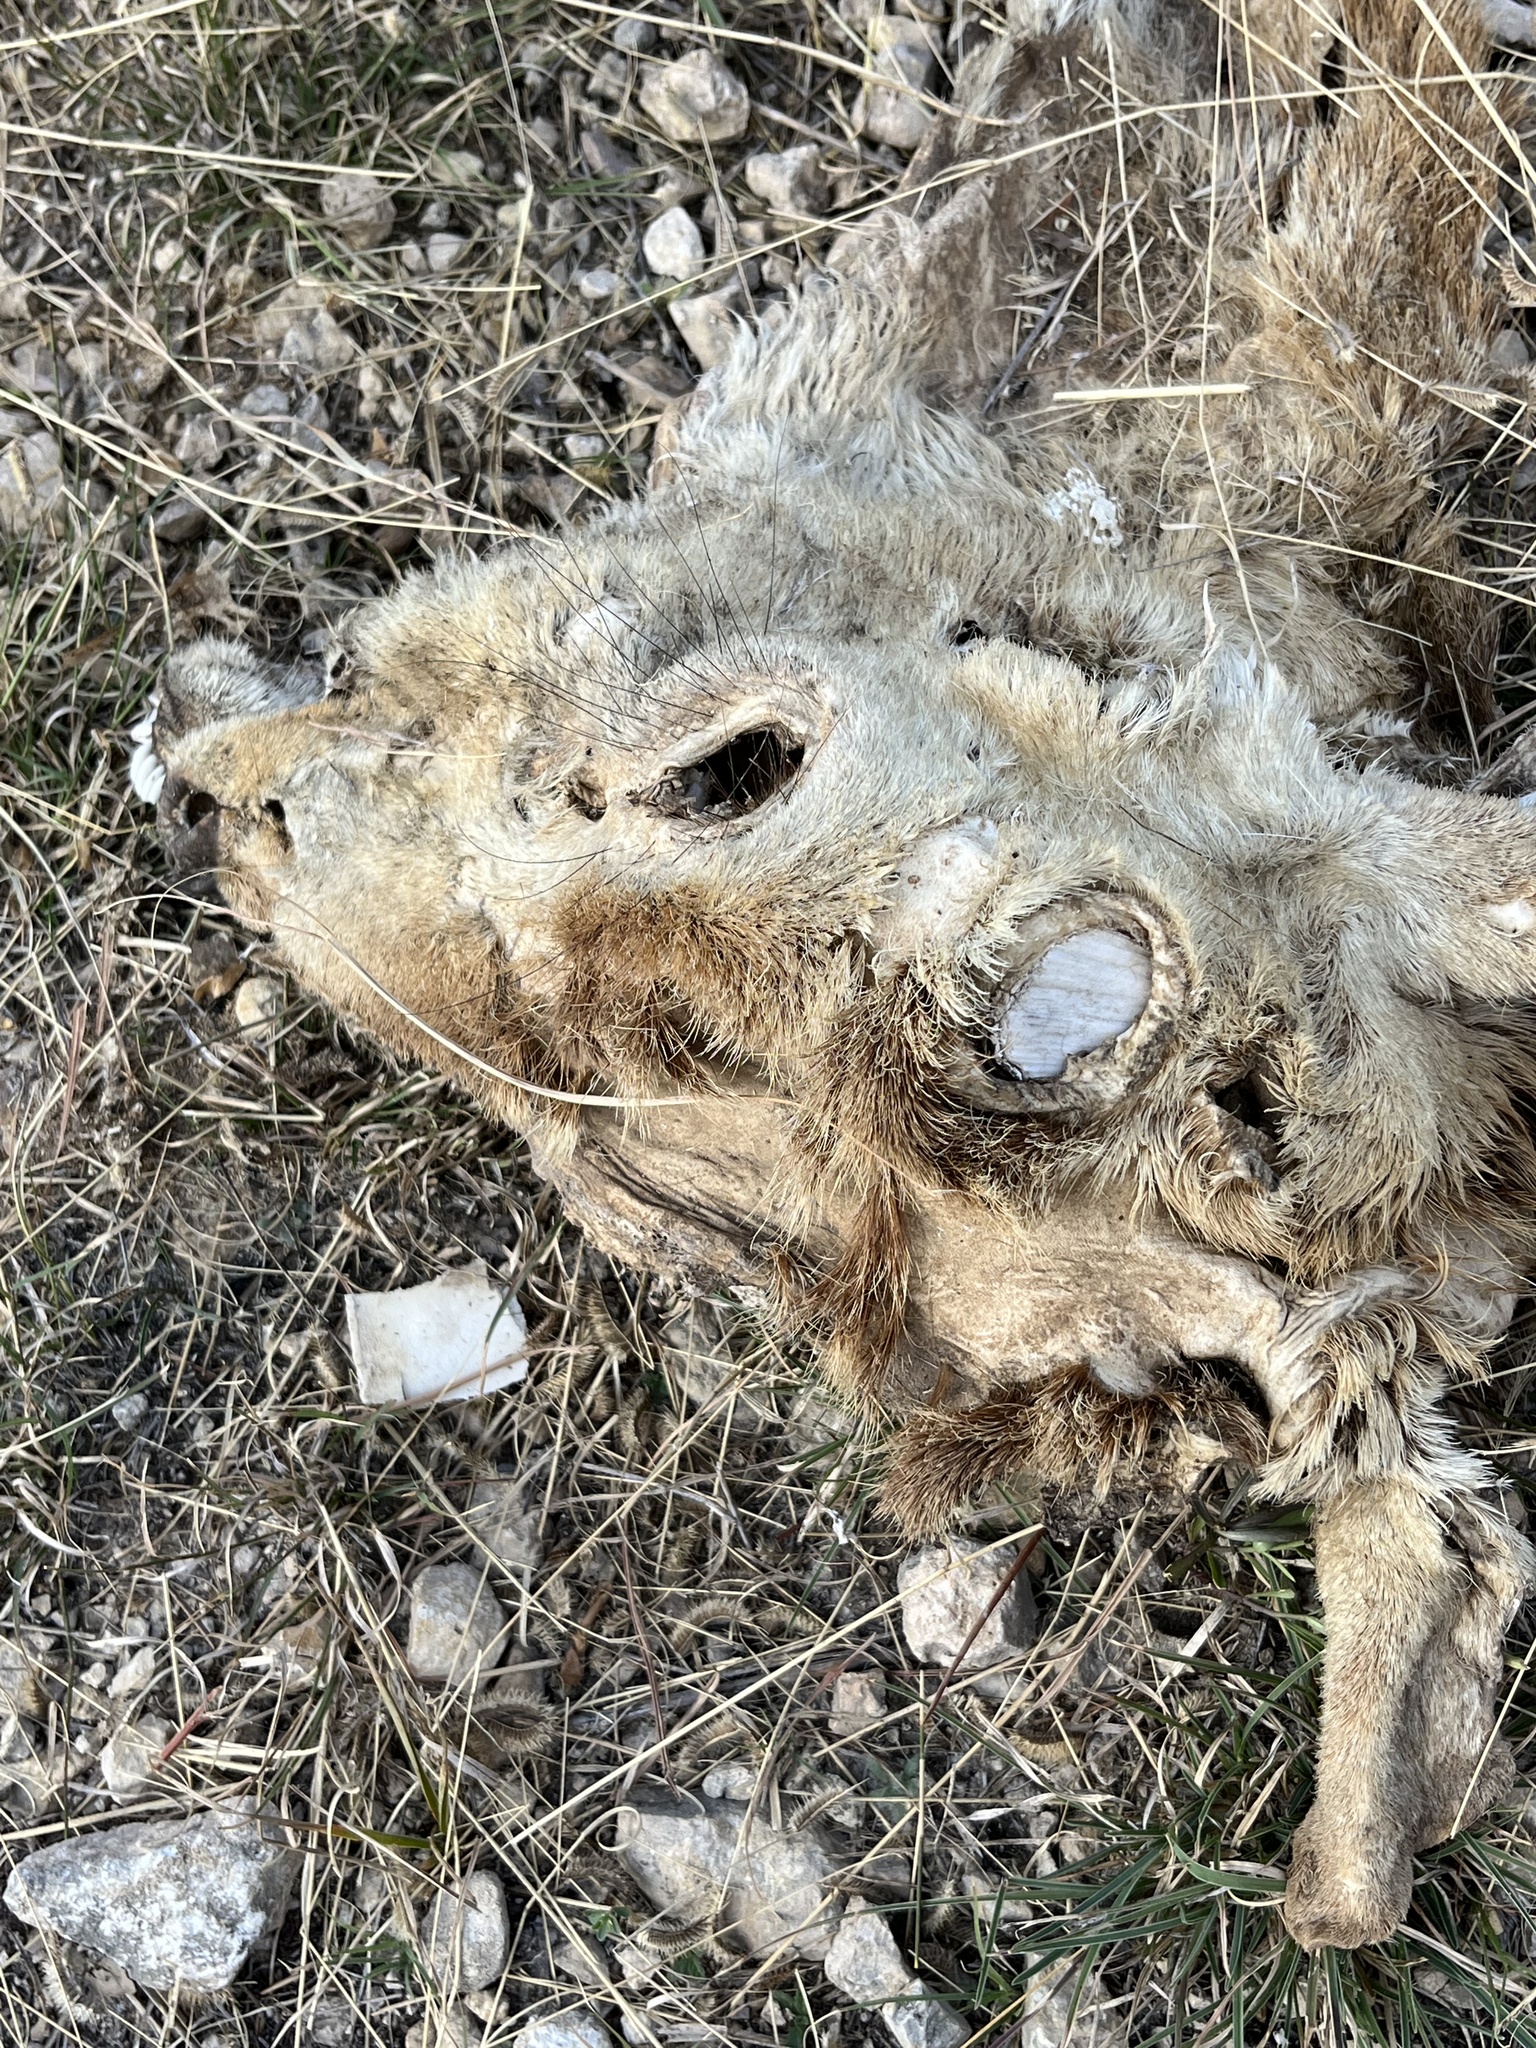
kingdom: Animalia
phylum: Chordata
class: Mammalia
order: Artiodactyla
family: Cervidae
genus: Axis
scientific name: Axis axis
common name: Chital
